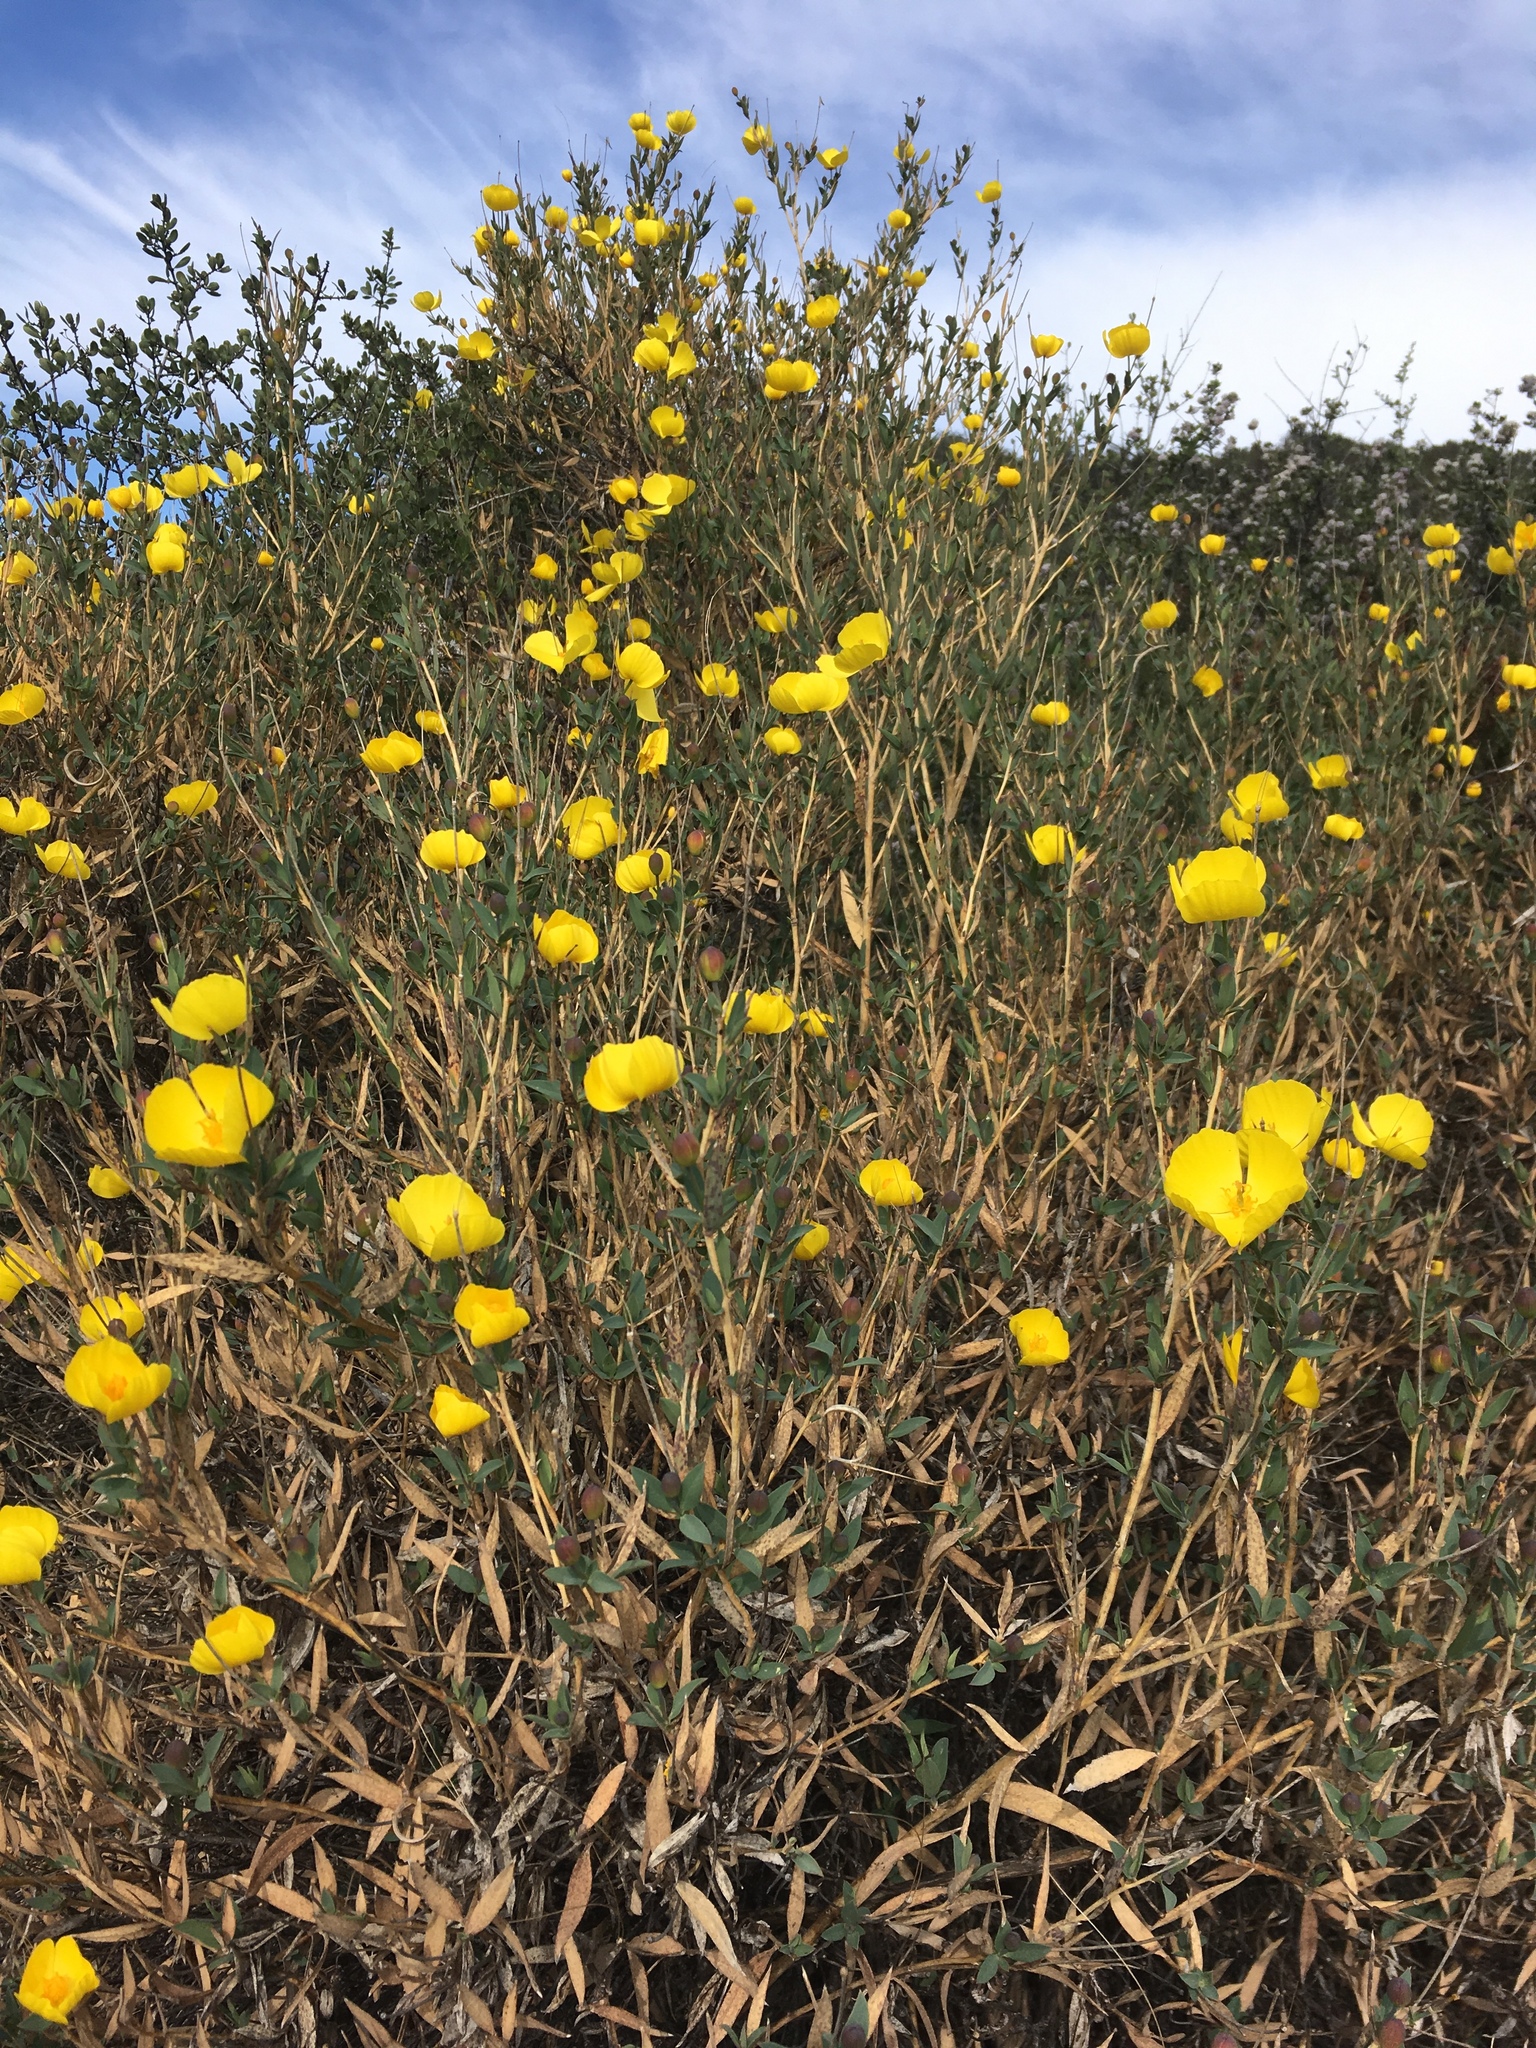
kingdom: Plantae
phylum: Tracheophyta
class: Magnoliopsida
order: Ranunculales
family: Papaveraceae
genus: Dendromecon
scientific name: Dendromecon rigida
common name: Tree poppy
